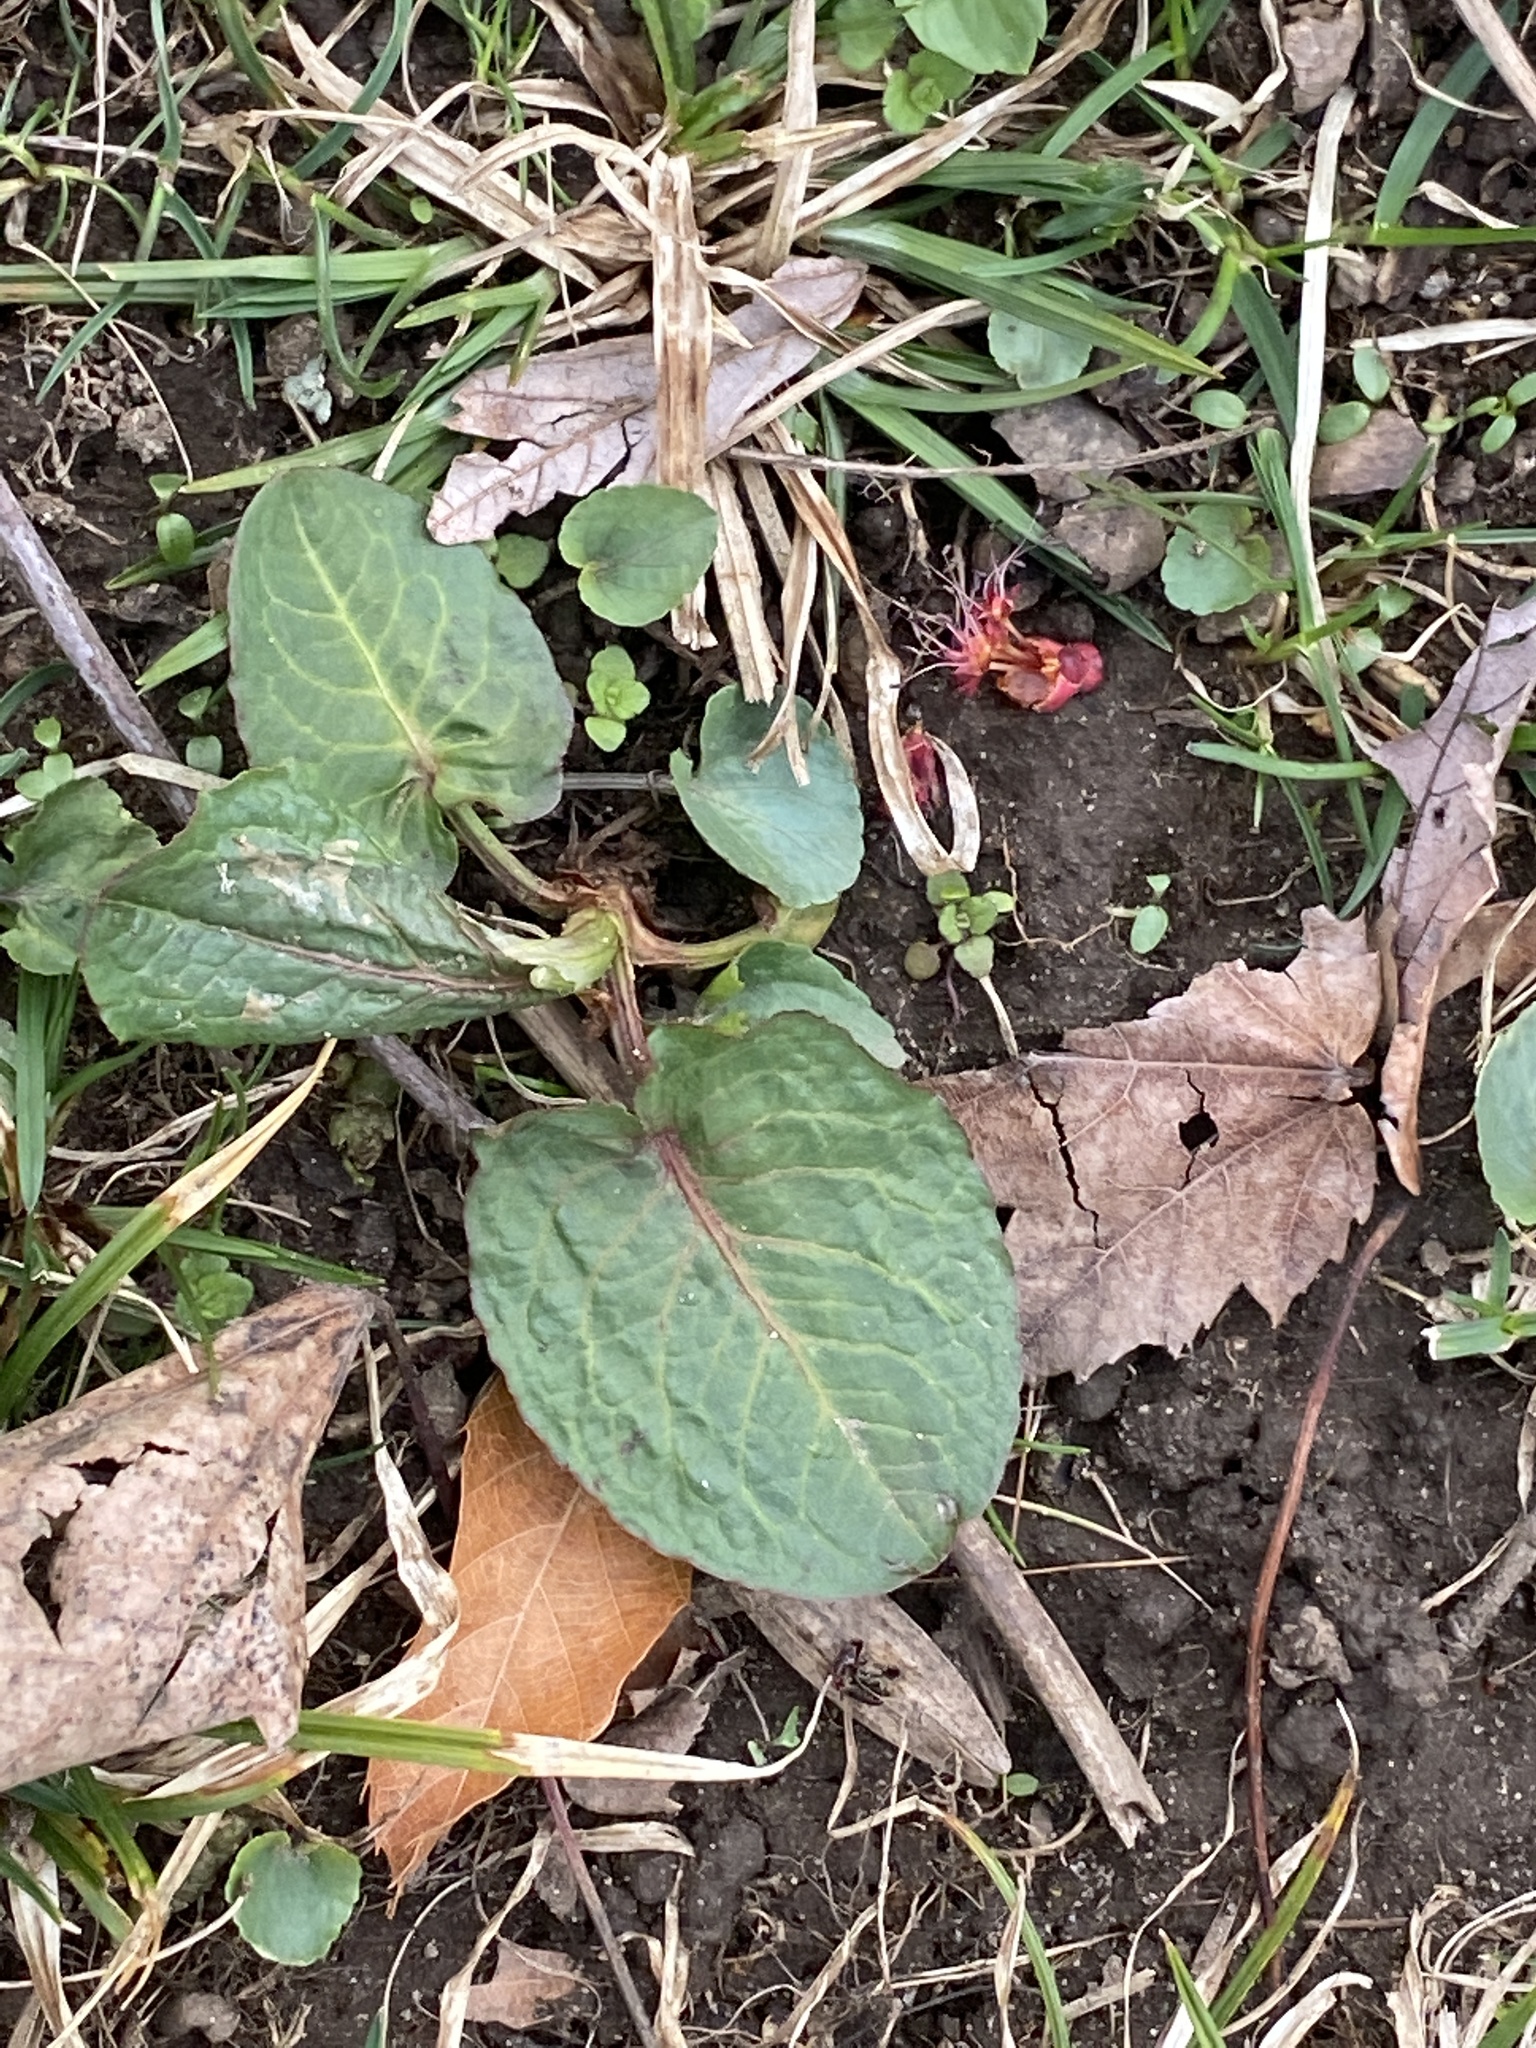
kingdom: Plantae
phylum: Tracheophyta
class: Magnoliopsida
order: Caryophyllales
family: Polygonaceae
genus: Rumex
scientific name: Rumex obtusifolius
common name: Bitter dock
